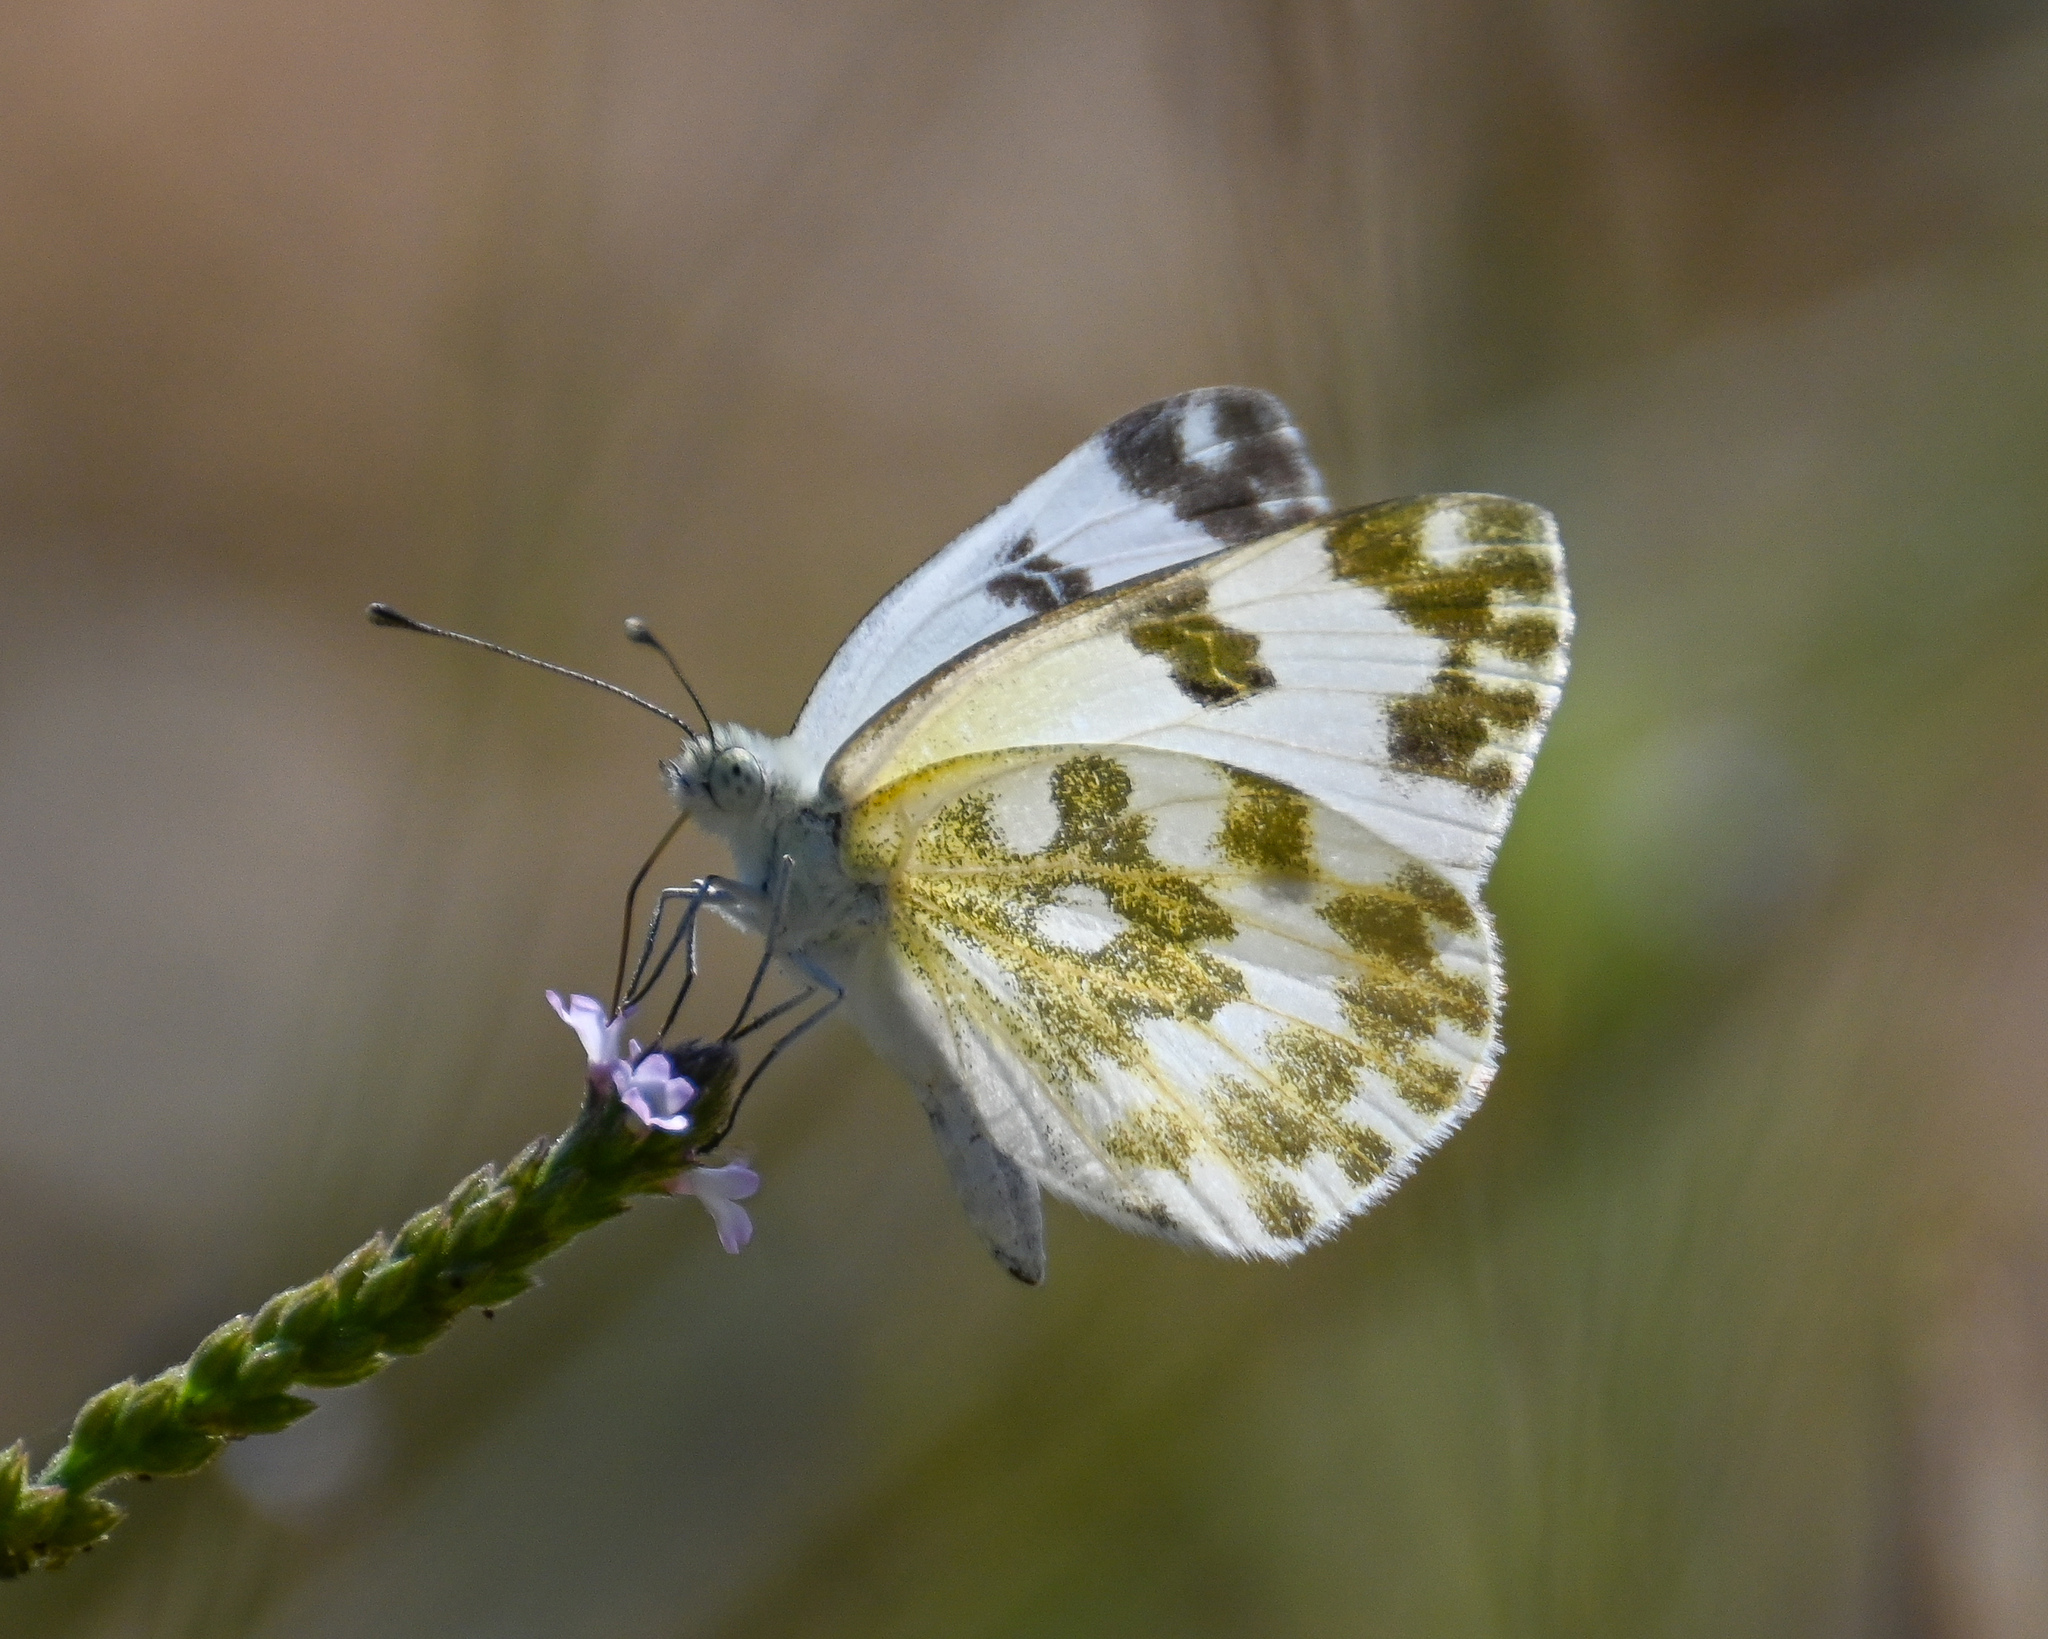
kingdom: Animalia
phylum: Arthropoda
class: Insecta
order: Lepidoptera
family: Pieridae
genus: Pontia
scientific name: Pontia edusa
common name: Eastern bath white
